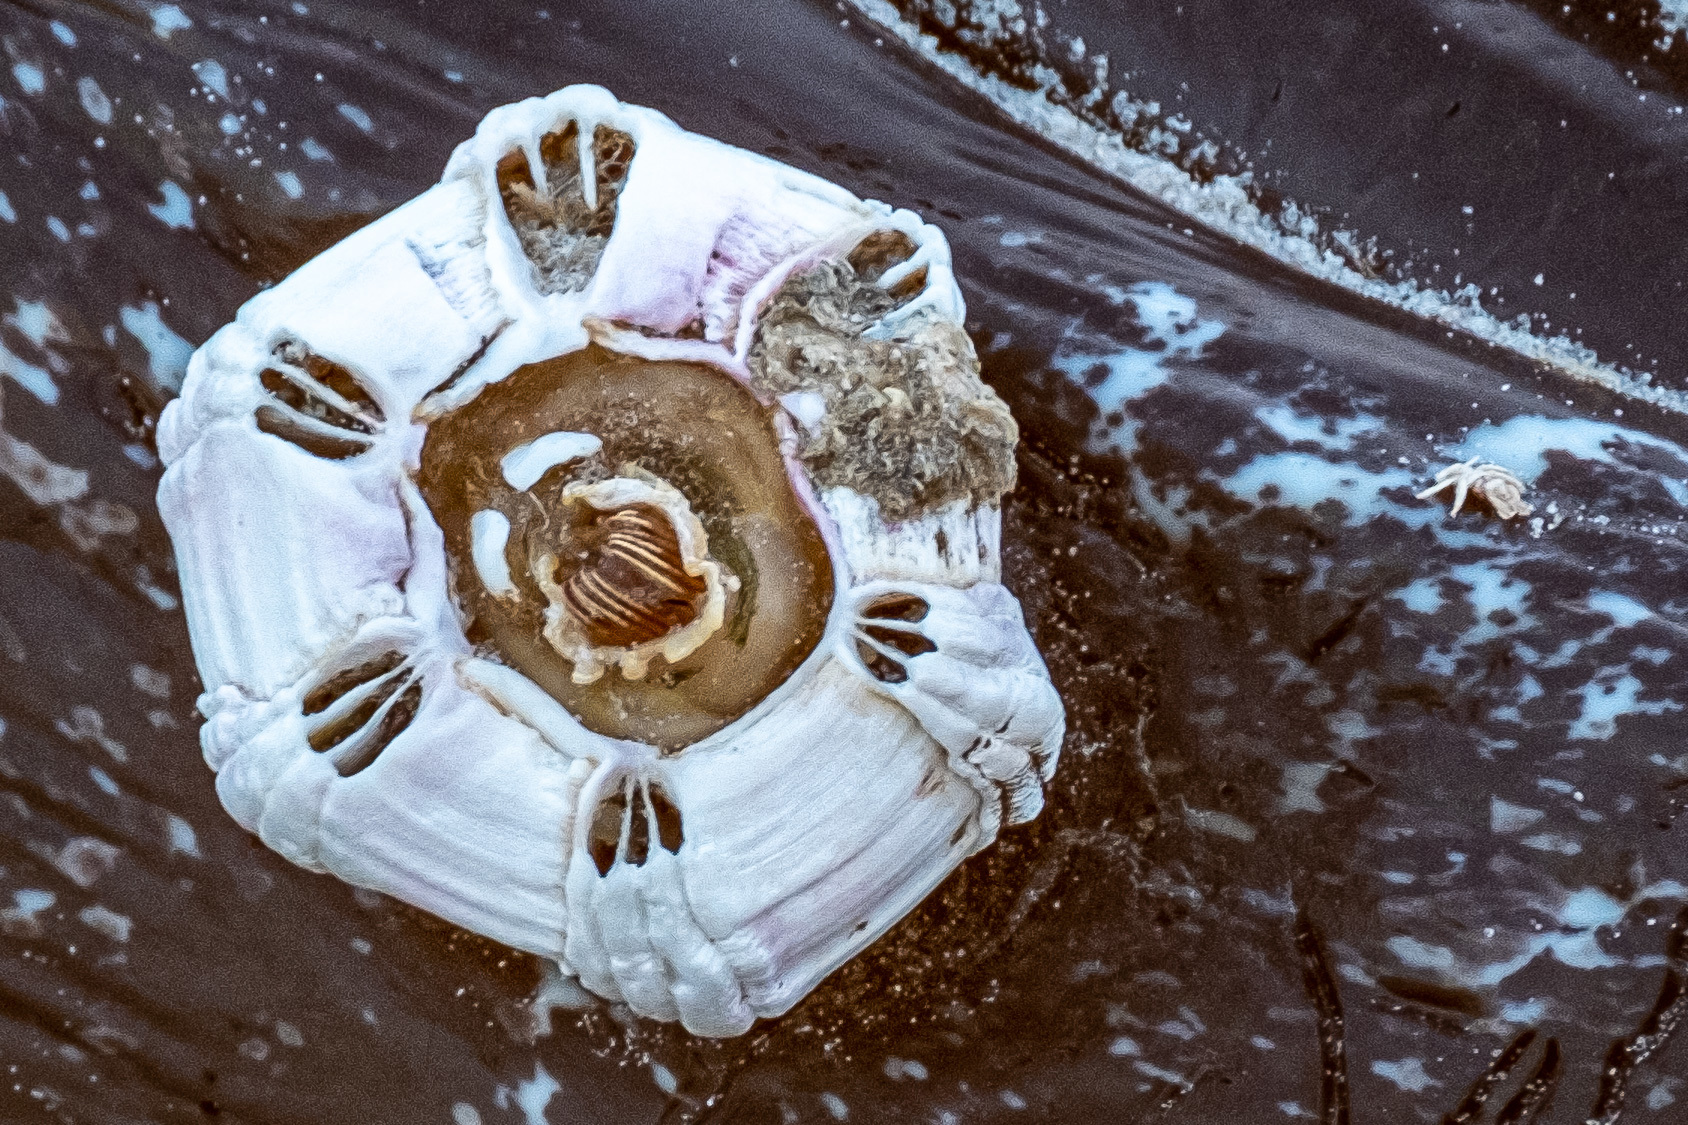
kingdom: Animalia
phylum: Arthropoda
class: Maxillopoda
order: Sessilia
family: Coronulidae
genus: Coronula
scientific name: Coronula diadema
